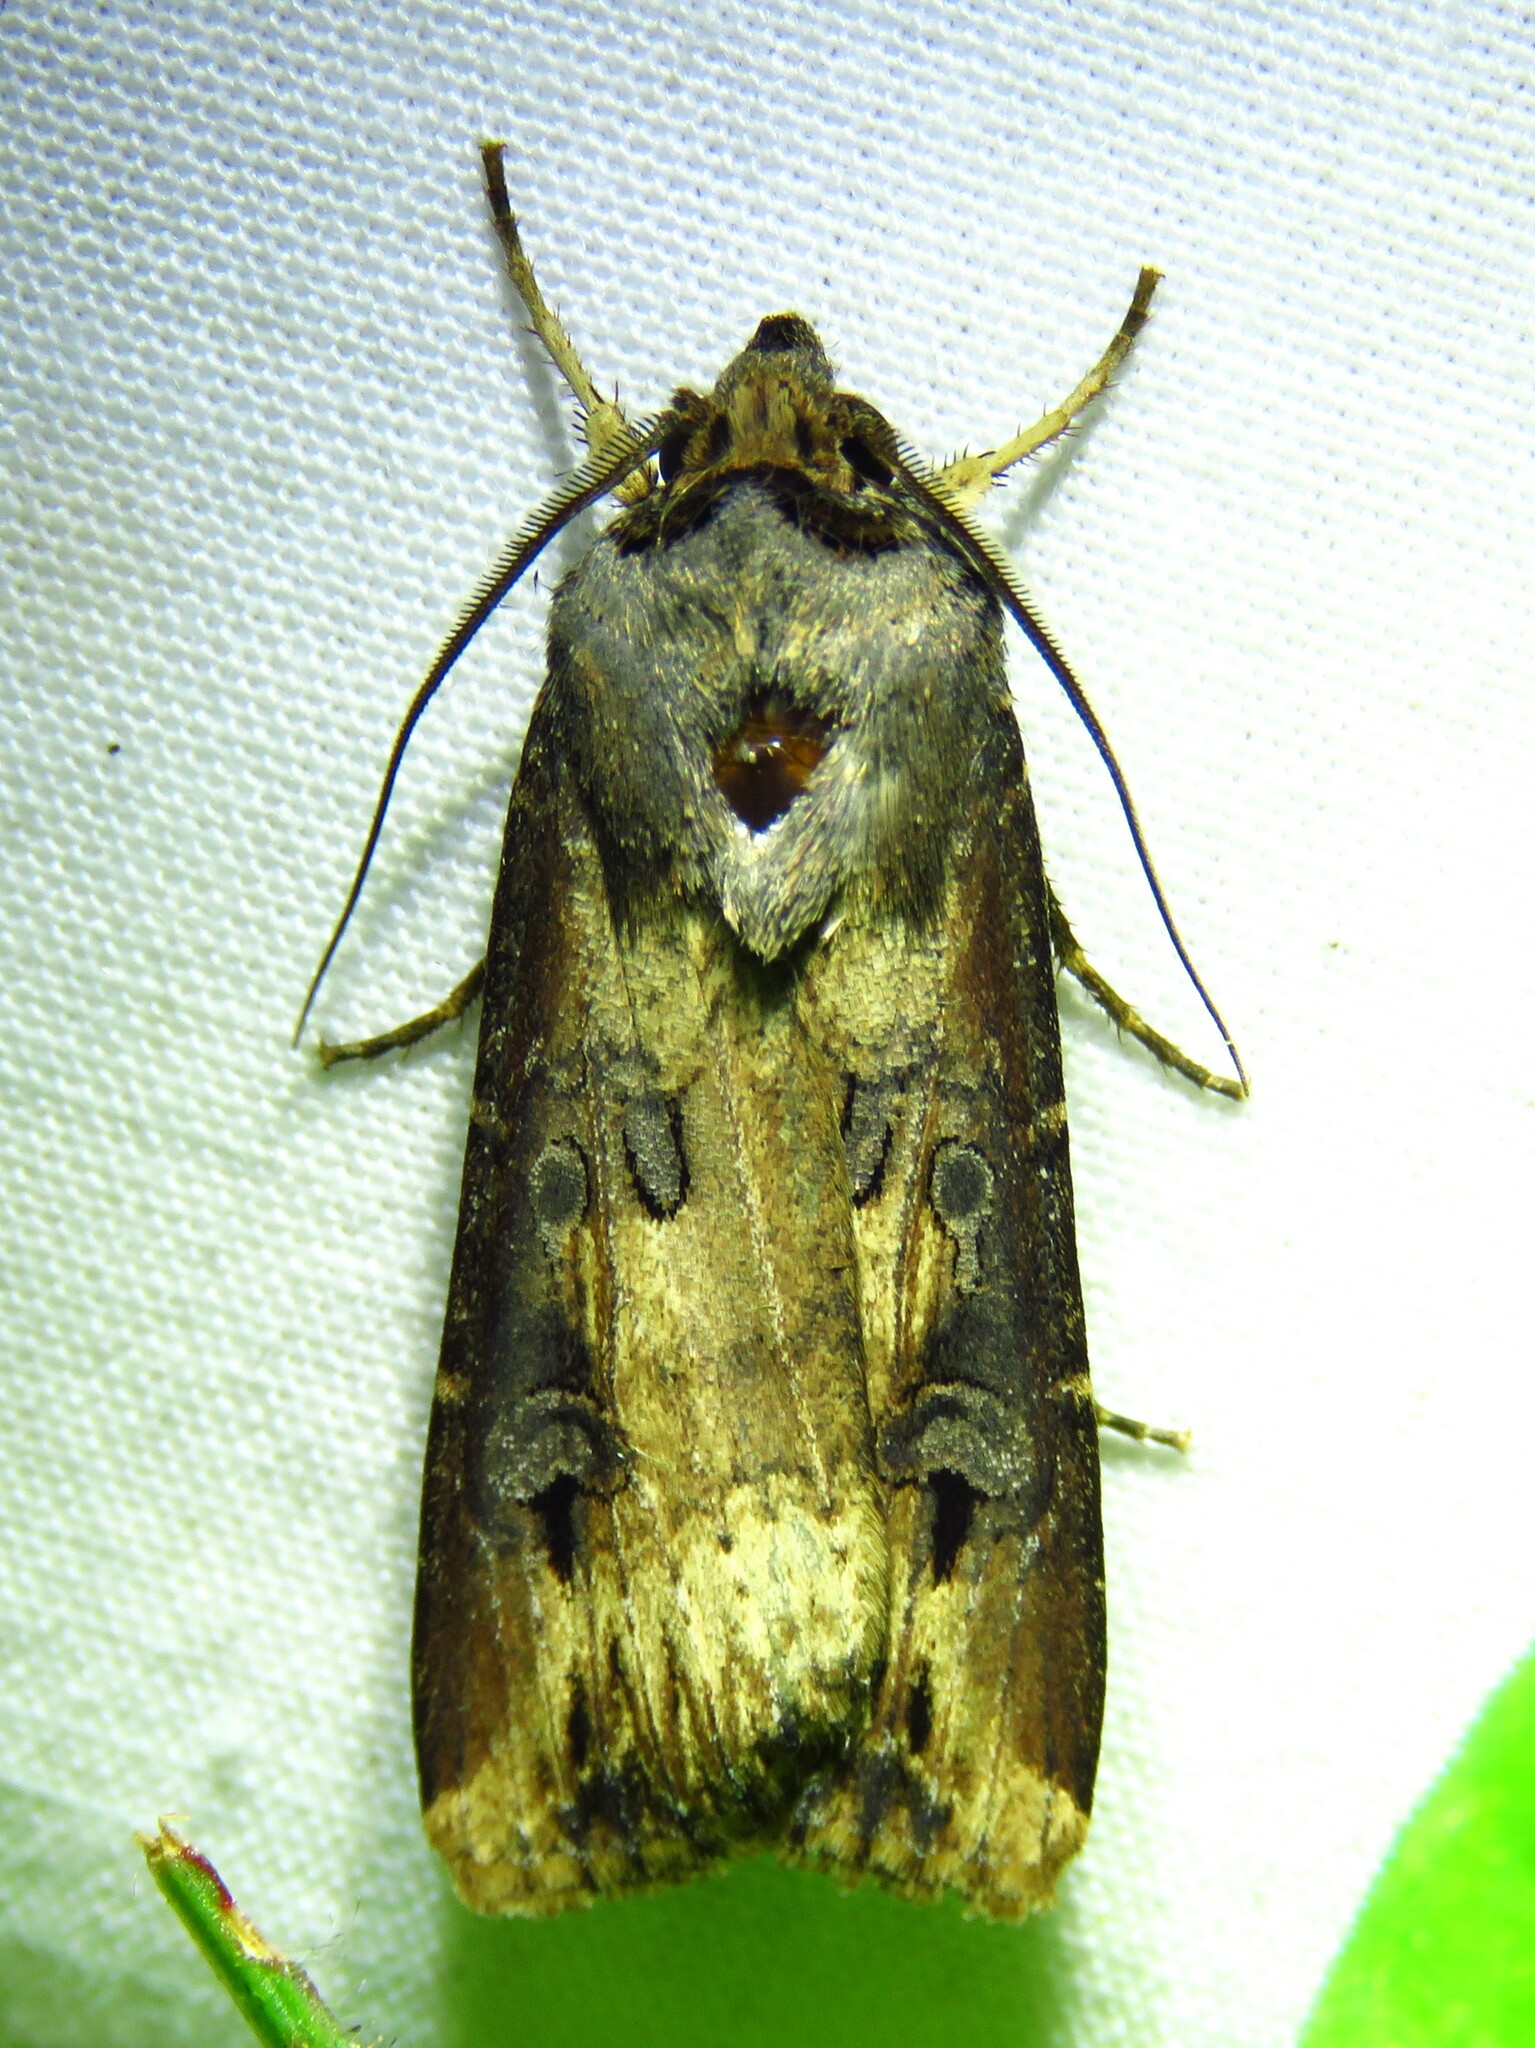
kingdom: Animalia
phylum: Arthropoda
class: Insecta
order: Lepidoptera
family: Noctuidae
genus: Agrotis
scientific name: Agrotis ipsilon
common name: Dark sword-grass
